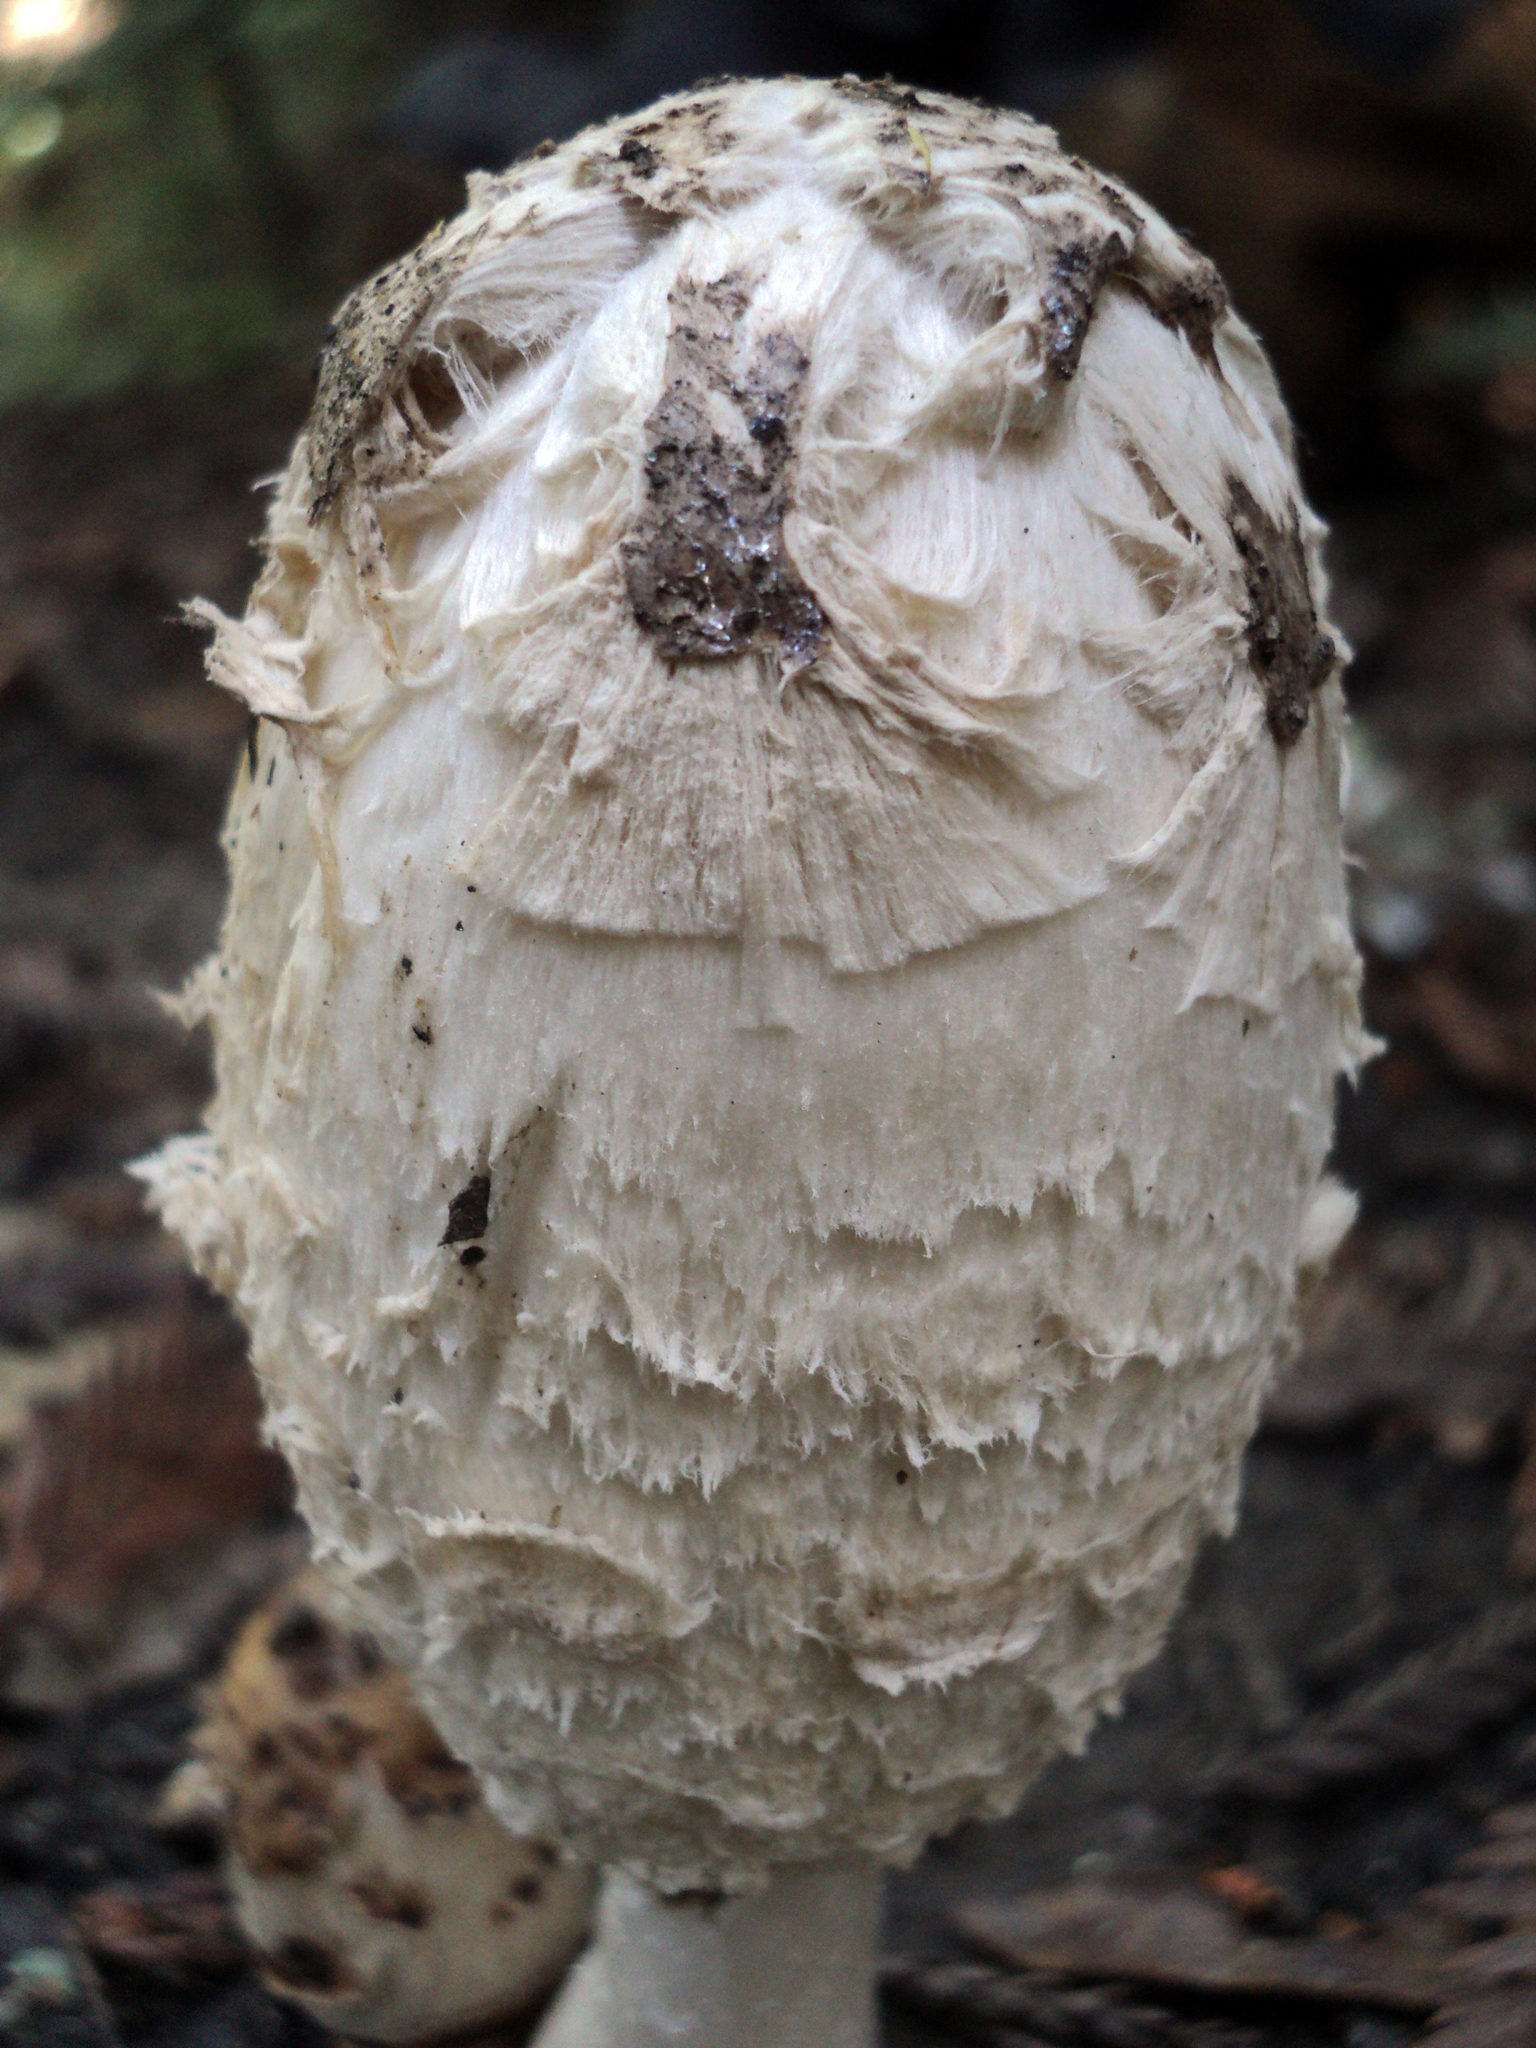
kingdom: Fungi
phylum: Basidiomycota
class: Agaricomycetes
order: Agaricales
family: Agaricaceae
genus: Coprinus
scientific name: Coprinus comatus
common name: Lawyer's wig
